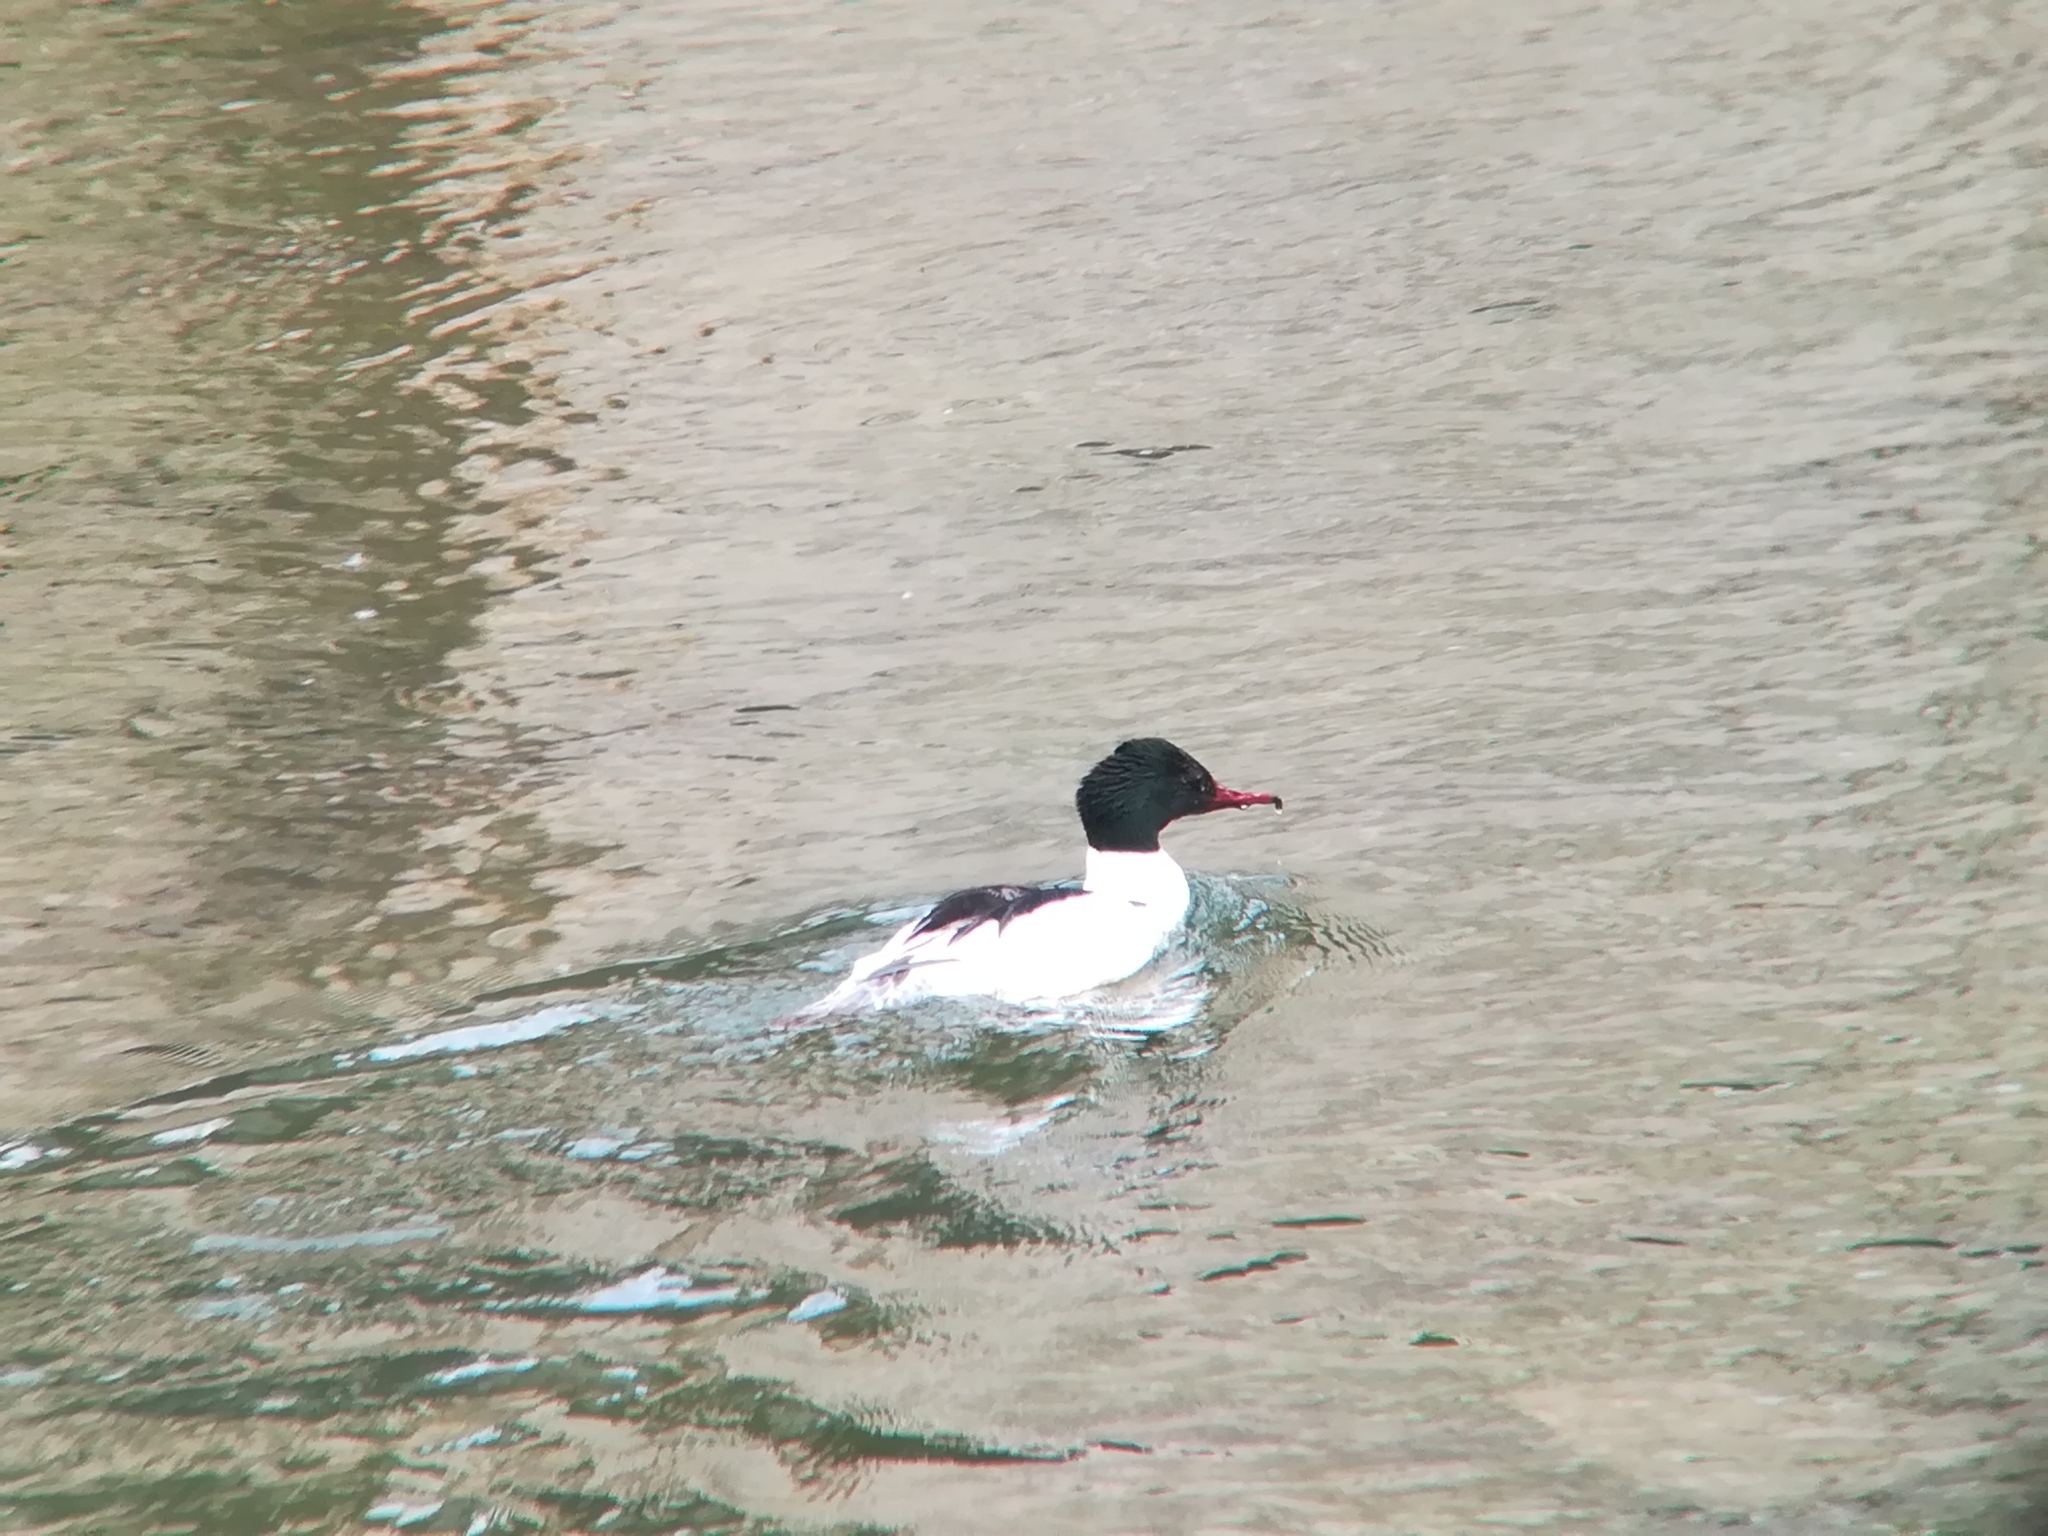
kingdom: Animalia
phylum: Chordata
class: Aves
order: Anseriformes
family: Anatidae
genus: Mergus
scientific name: Mergus merganser
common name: Common merganser
